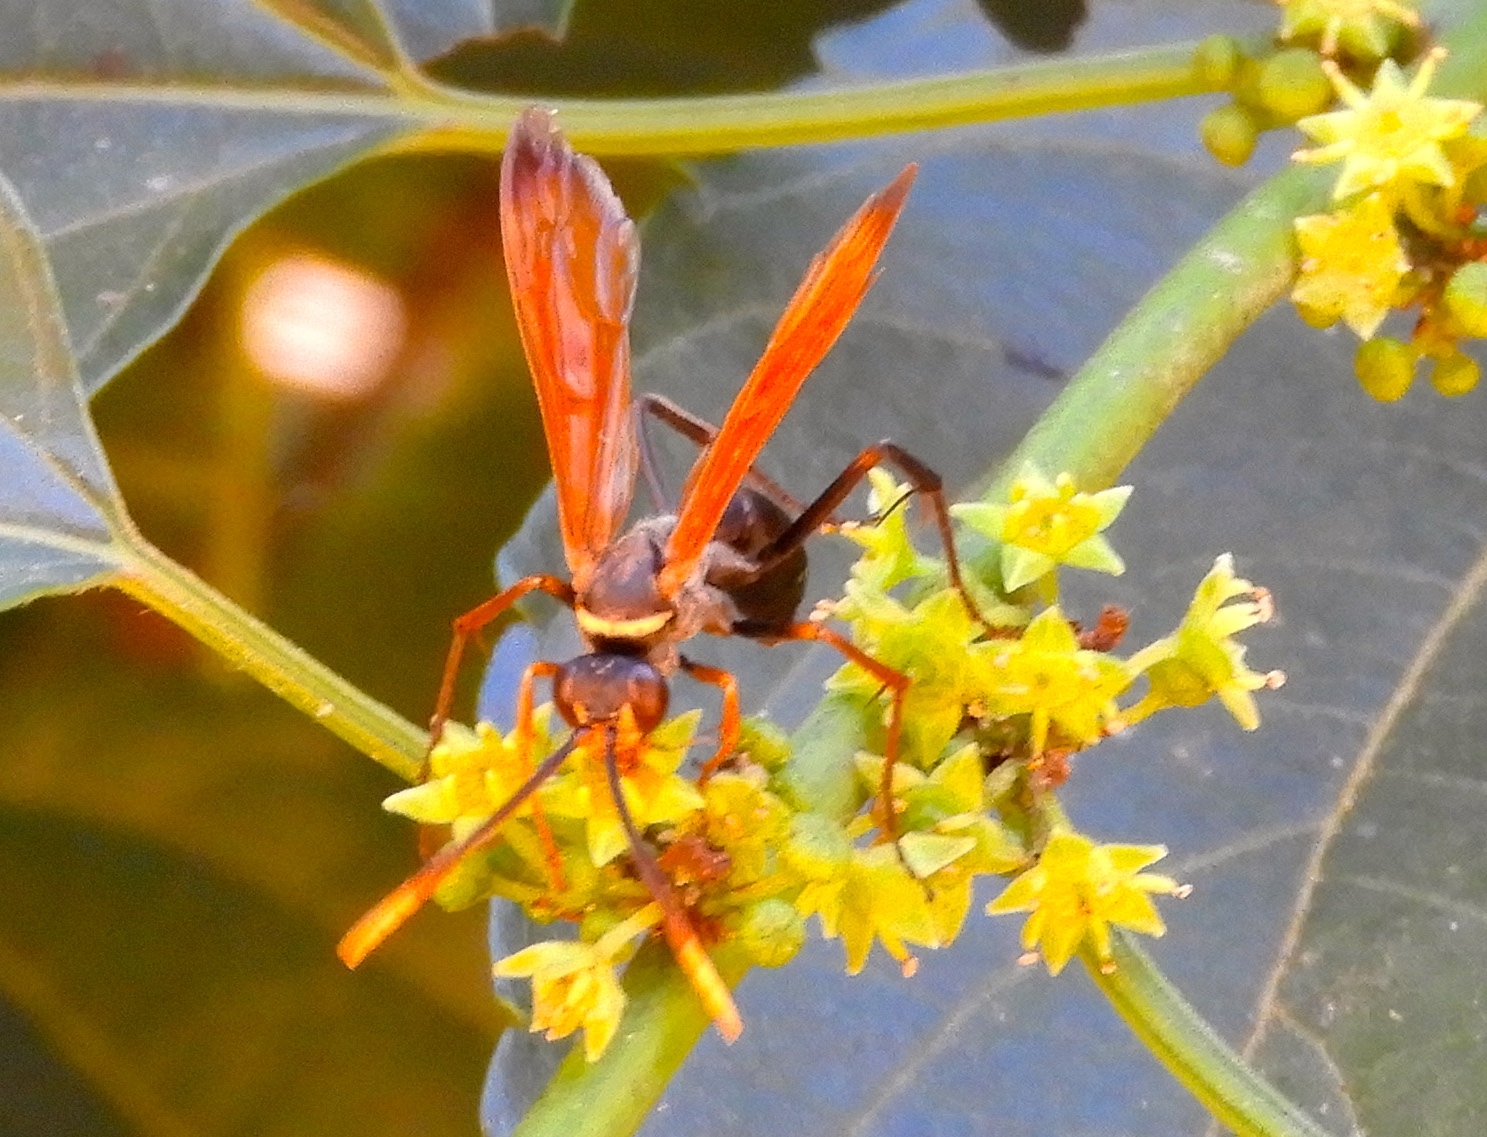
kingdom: Animalia
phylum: Arthropoda
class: Insecta
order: Hymenoptera
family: Pompilidae
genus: Hemipepsis
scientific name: Hemipepsis
